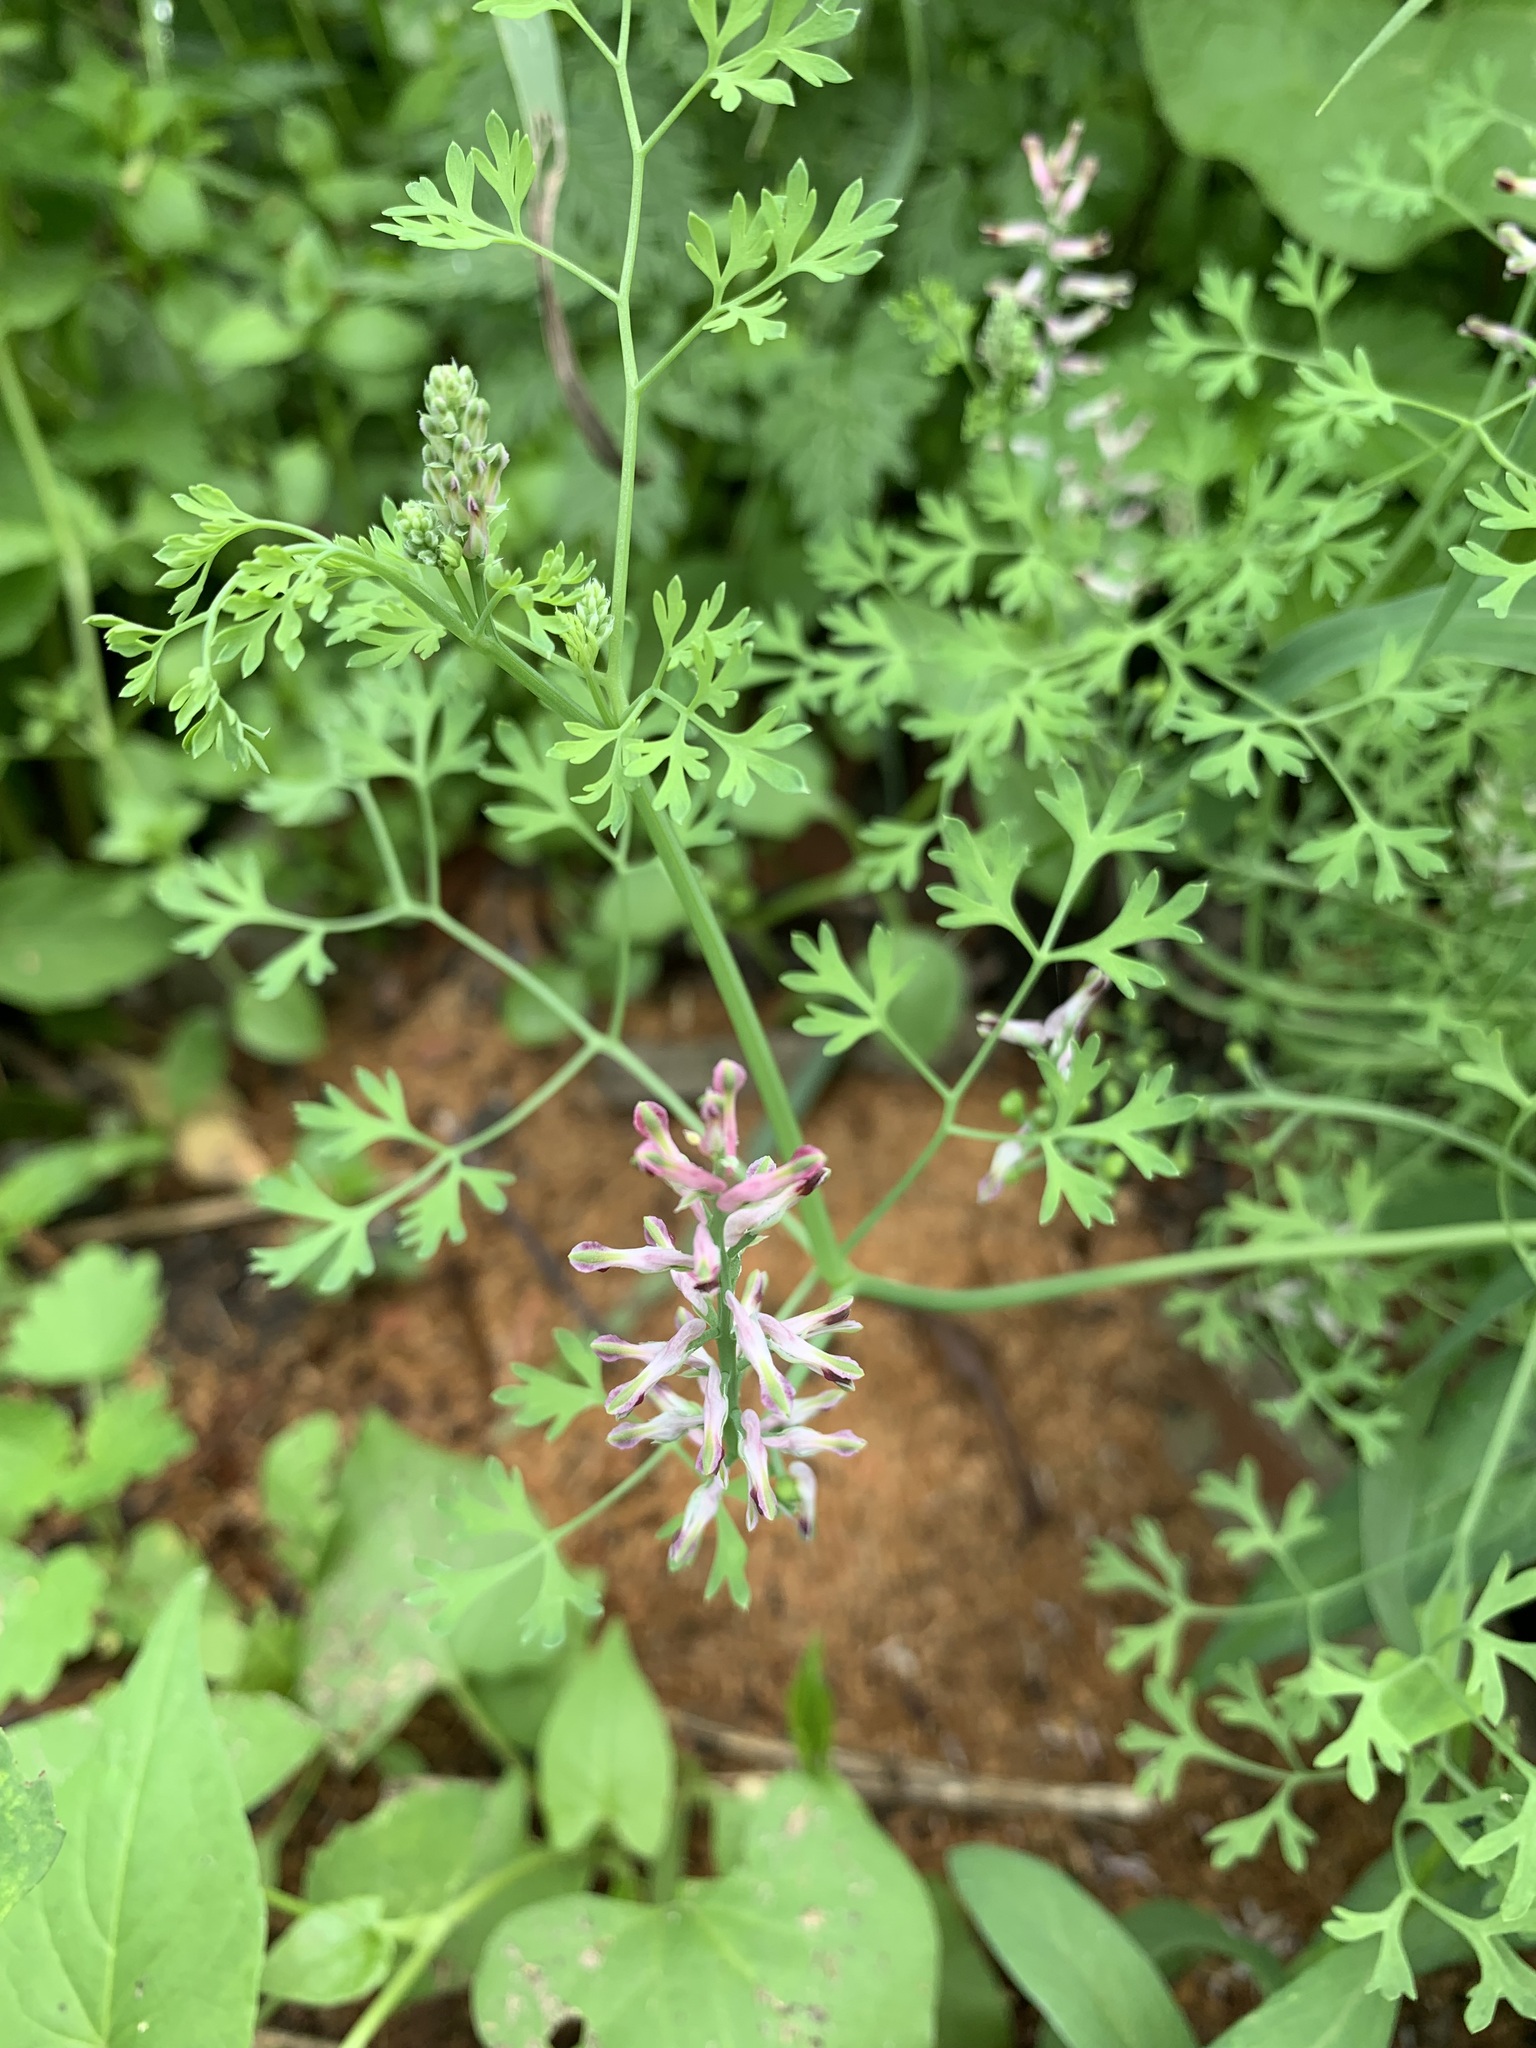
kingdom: Plantae
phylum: Tracheophyta
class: Magnoliopsida
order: Ranunculales
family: Papaveraceae
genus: Fumaria
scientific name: Fumaria officinalis
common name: Common fumitory
